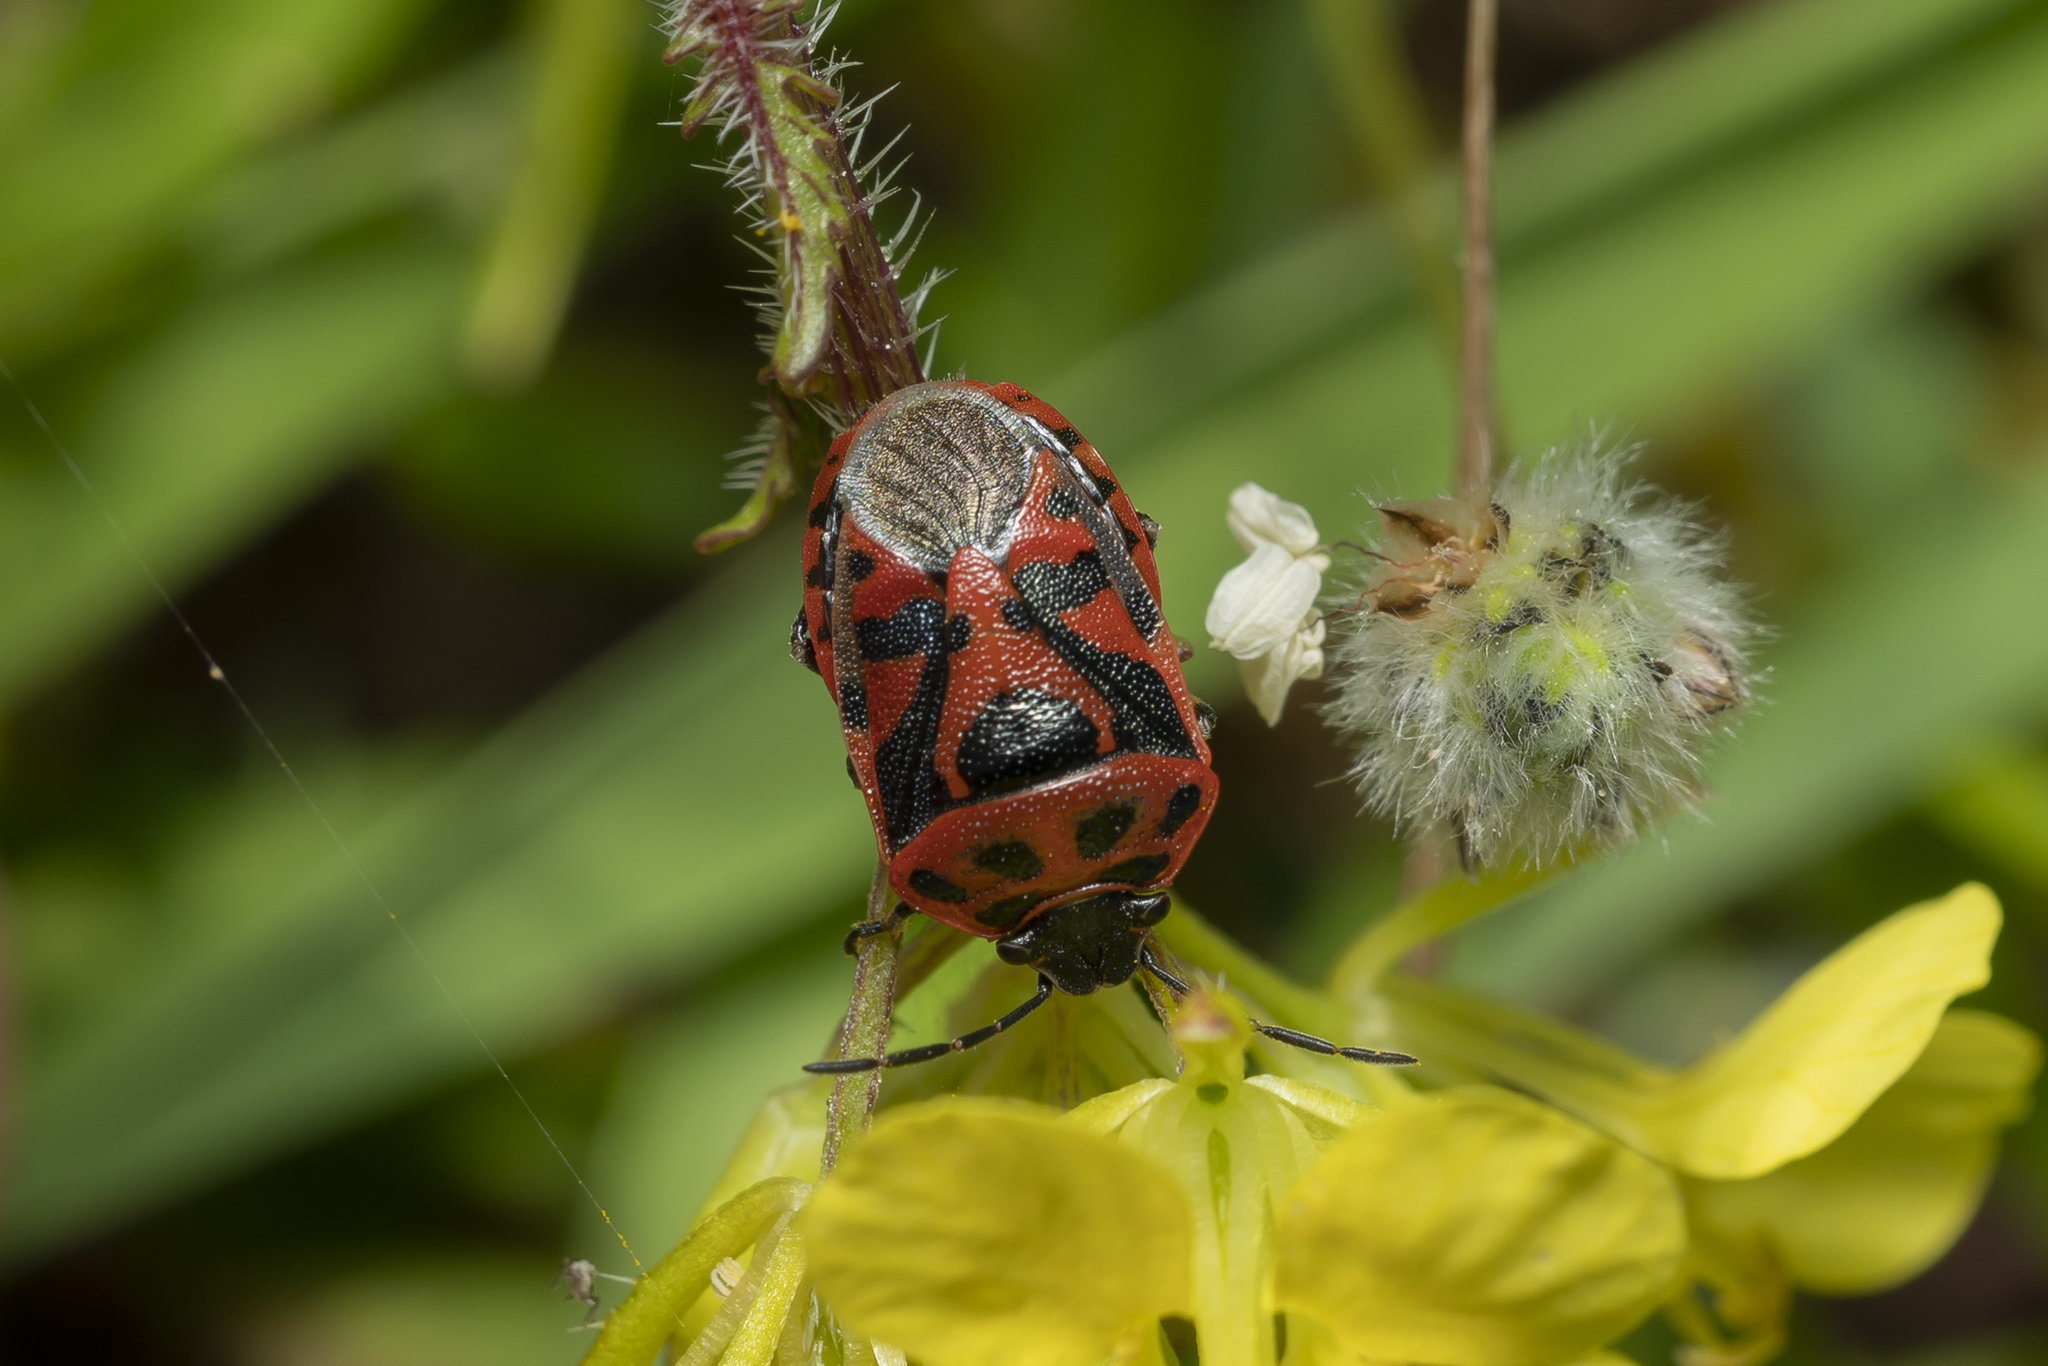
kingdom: Animalia
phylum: Arthropoda
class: Insecta
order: Hemiptera
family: Pentatomidae
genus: Eurydema
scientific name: Eurydema ornata
